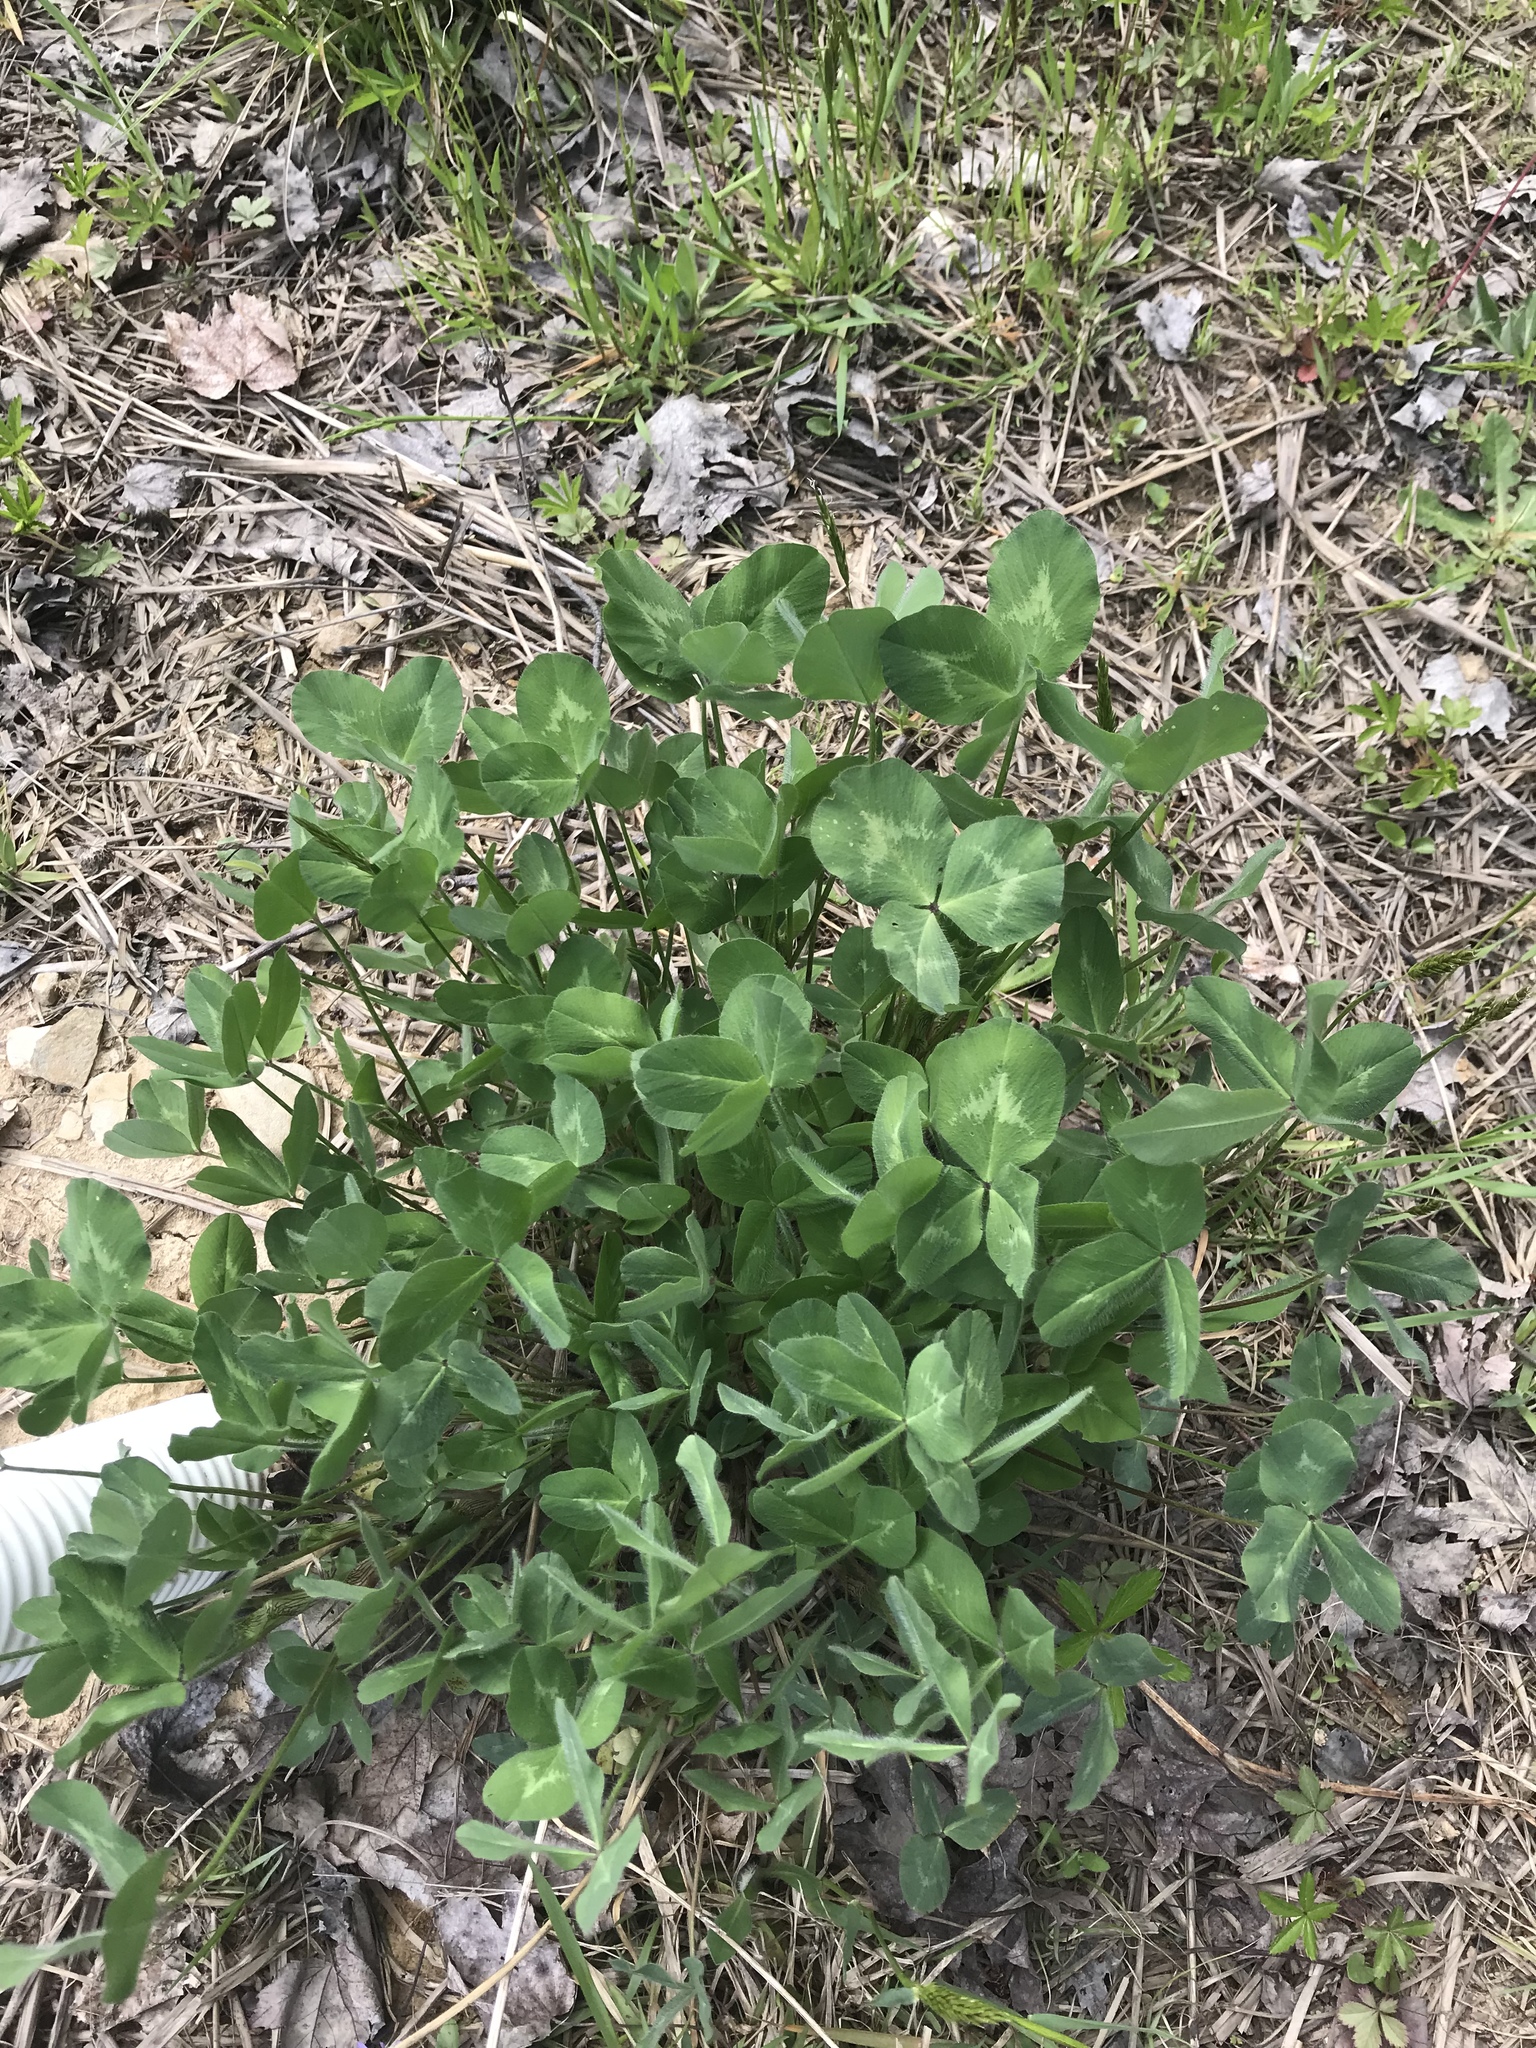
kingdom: Plantae
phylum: Tracheophyta
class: Magnoliopsida
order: Fabales
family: Fabaceae
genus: Trifolium
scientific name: Trifolium pratense
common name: Red clover
